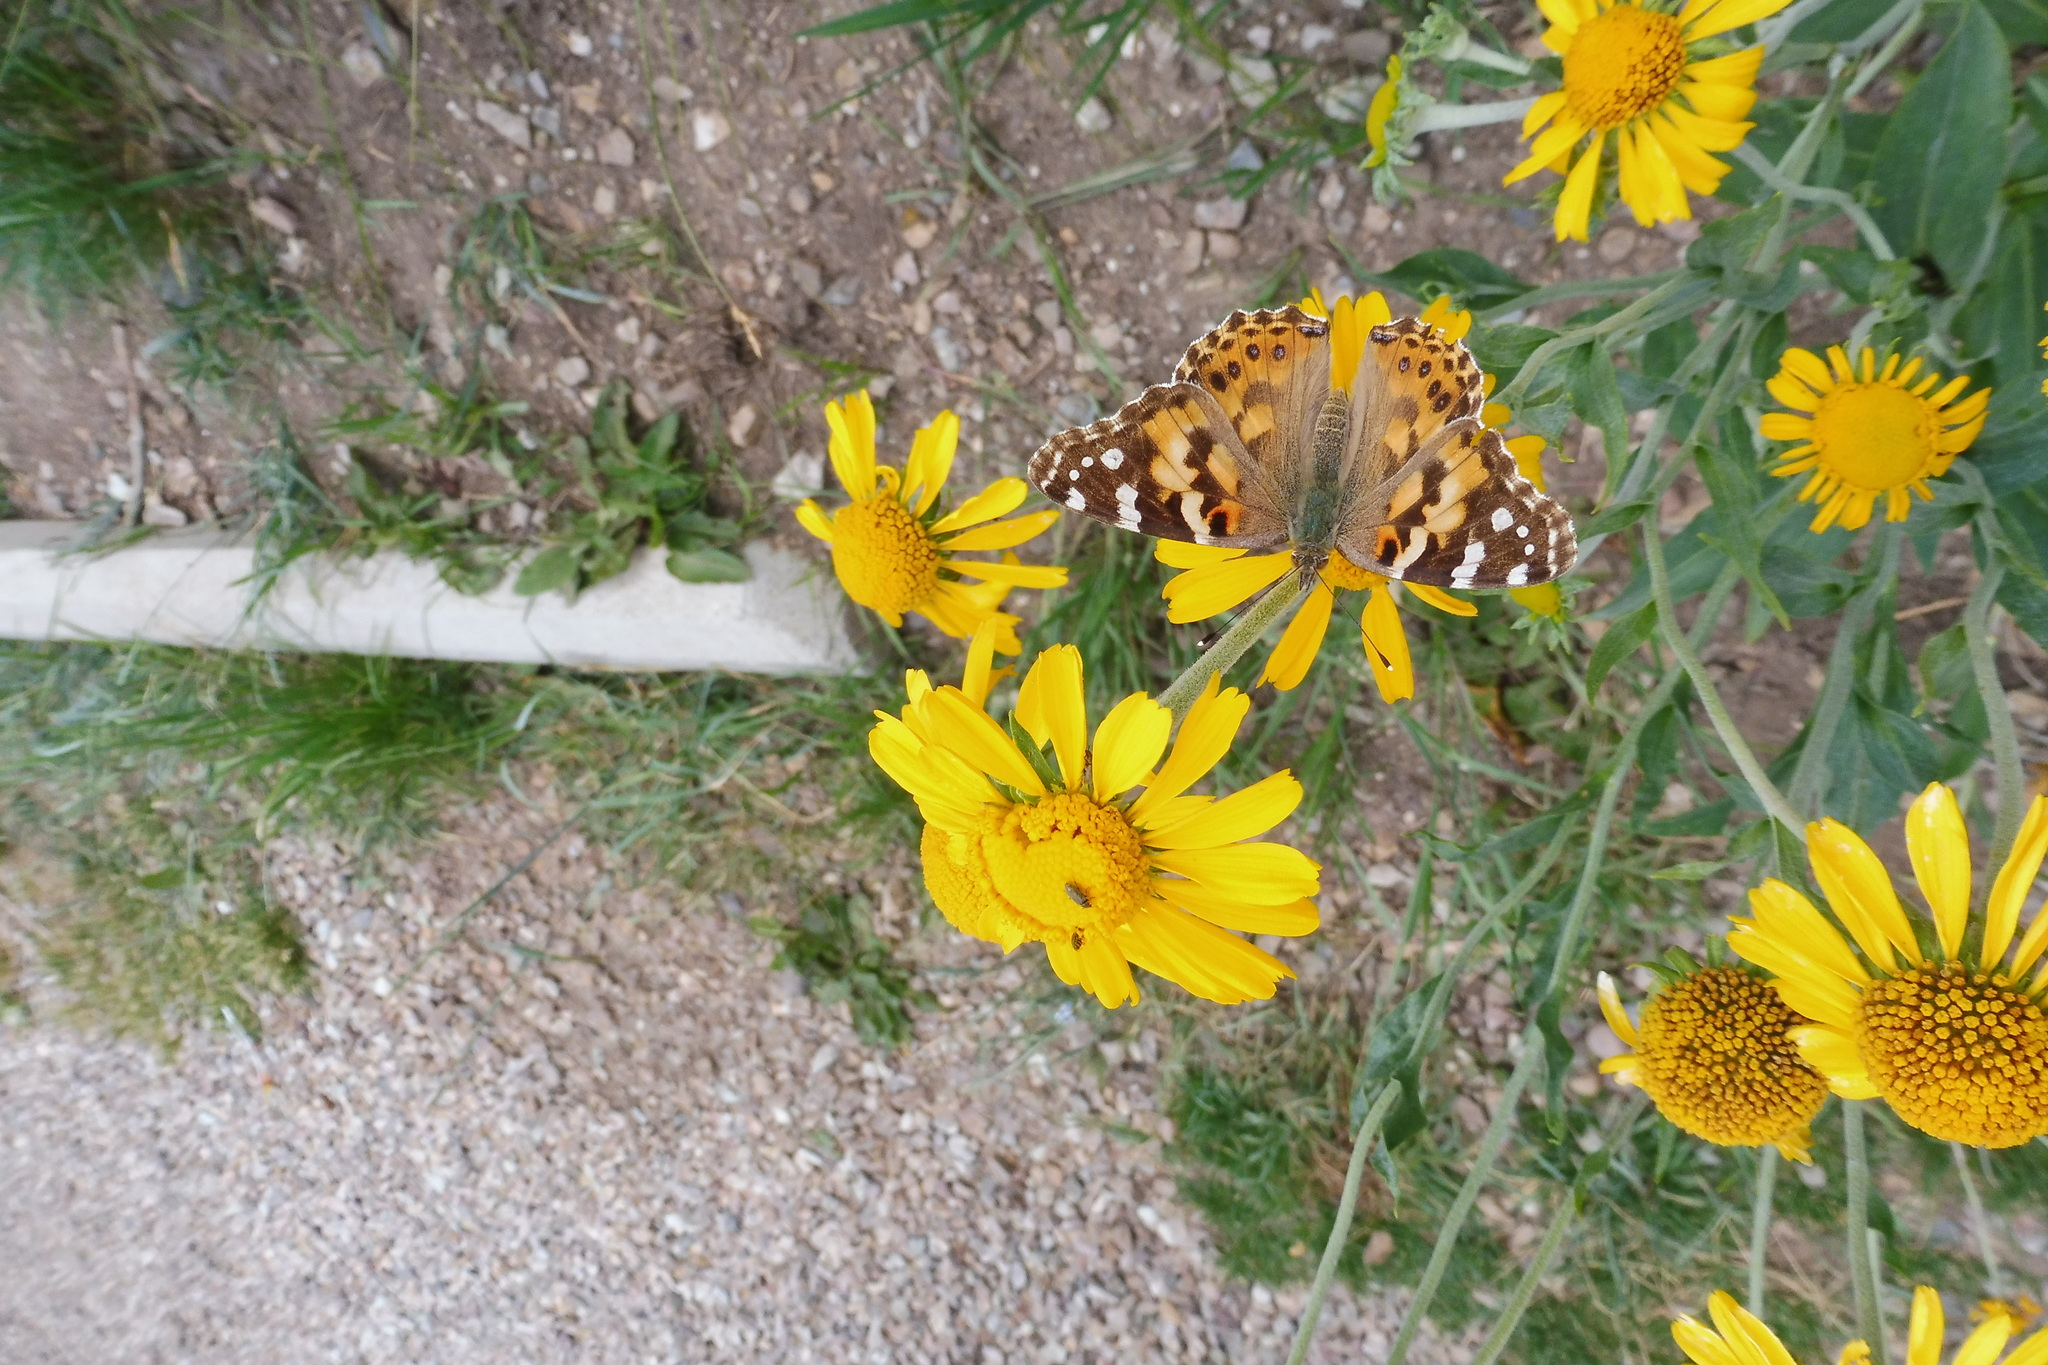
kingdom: Animalia
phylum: Arthropoda
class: Insecta
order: Lepidoptera
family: Nymphalidae
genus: Vanessa
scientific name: Vanessa cardui
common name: Painted lady
